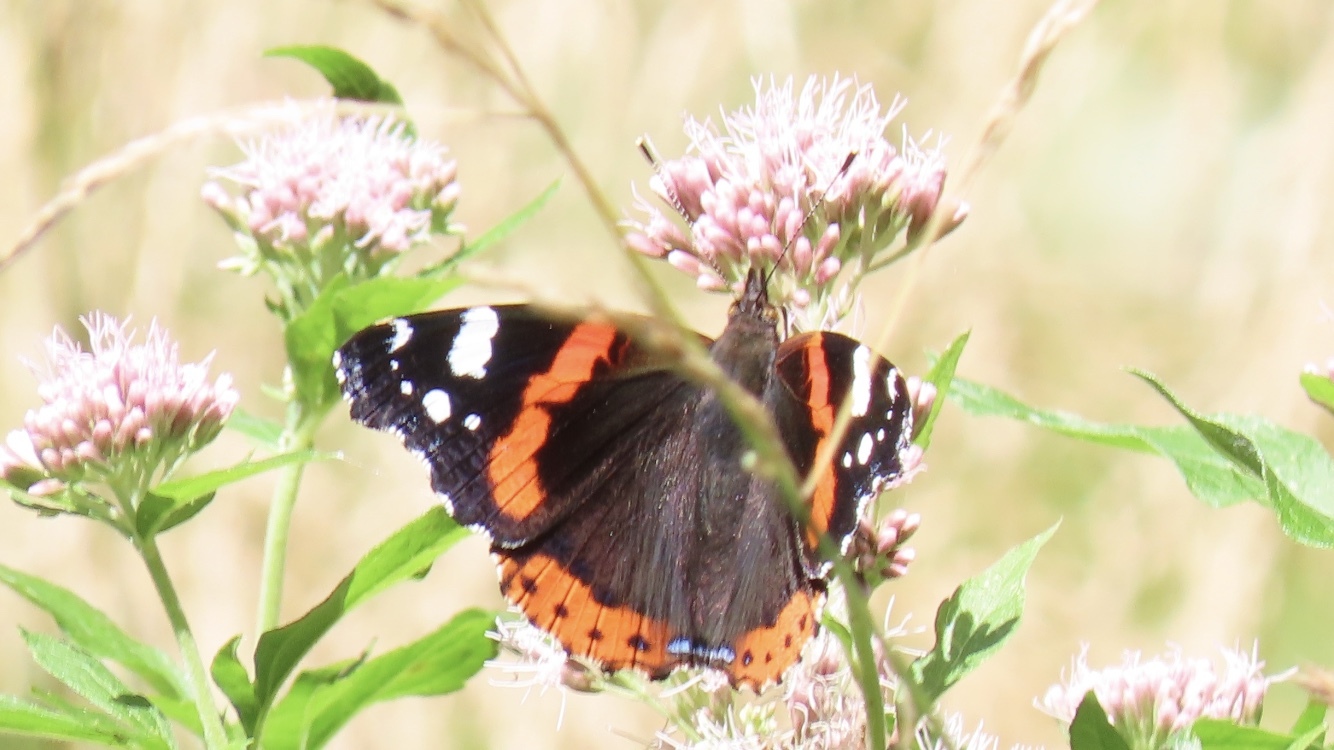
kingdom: Animalia
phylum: Arthropoda
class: Insecta
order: Lepidoptera
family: Nymphalidae
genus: Vanessa
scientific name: Vanessa atalanta
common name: Red admiral
